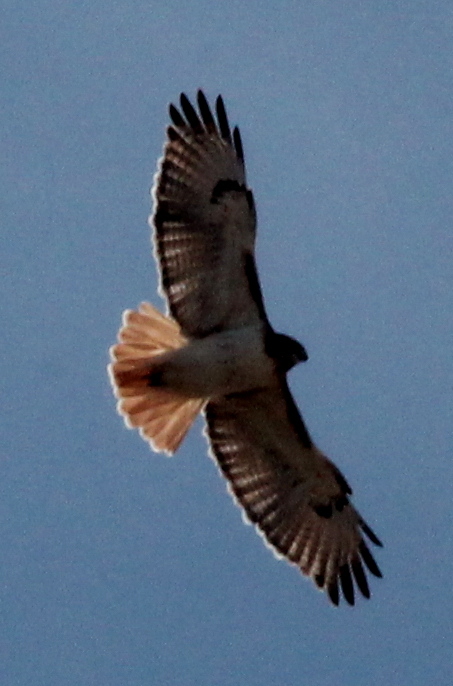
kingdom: Animalia
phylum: Chordata
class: Aves
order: Accipitriformes
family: Accipitridae
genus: Buteo
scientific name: Buteo jamaicensis
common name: Red-tailed hawk
